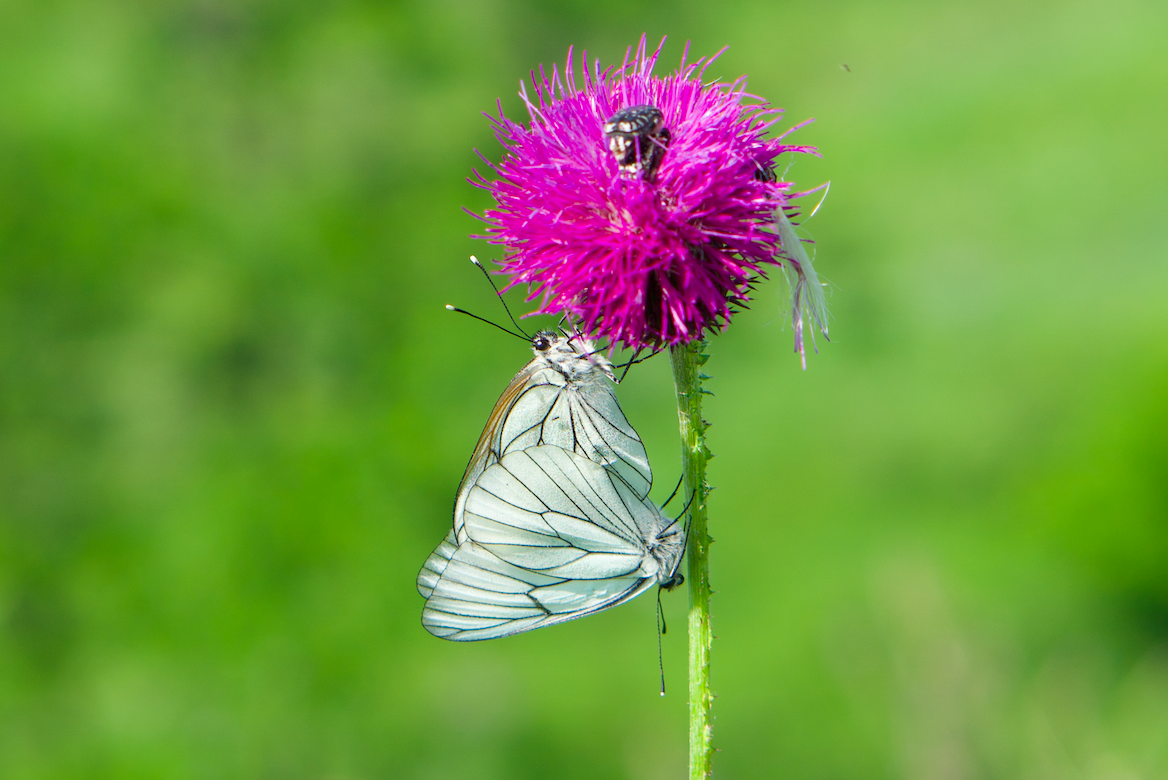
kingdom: Animalia
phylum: Arthropoda
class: Insecta
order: Lepidoptera
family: Pieridae
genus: Aporia
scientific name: Aporia crataegi
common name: Black-veined white
